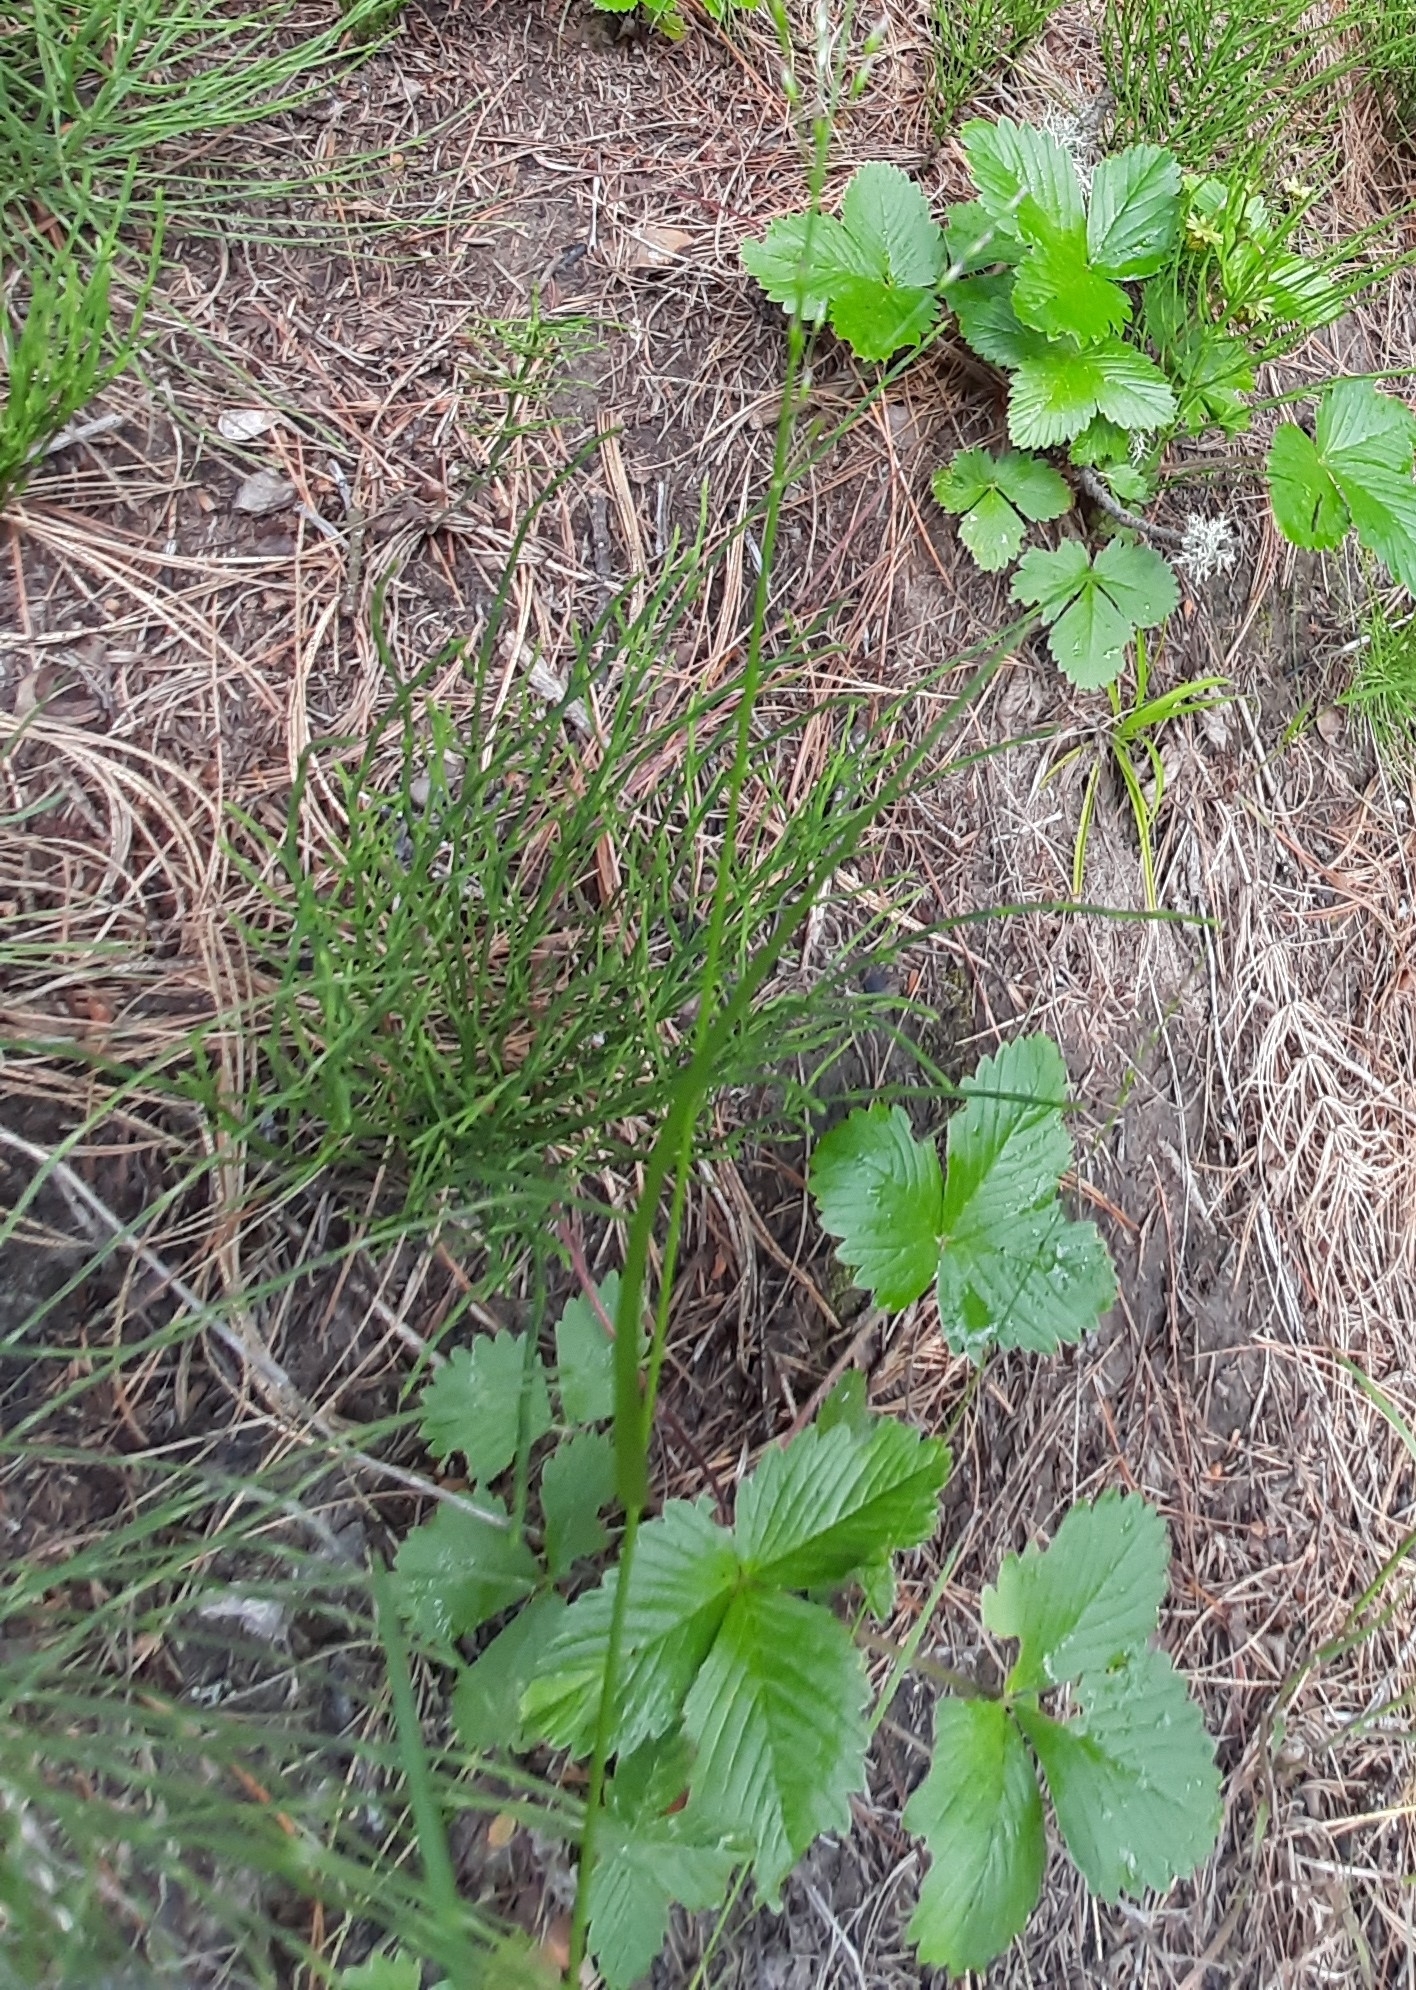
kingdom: Plantae
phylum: Tracheophyta
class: Magnoliopsida
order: Rosales
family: Rosaceae
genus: Fragaria
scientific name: Fragaria vesca
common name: Wild strawberry
